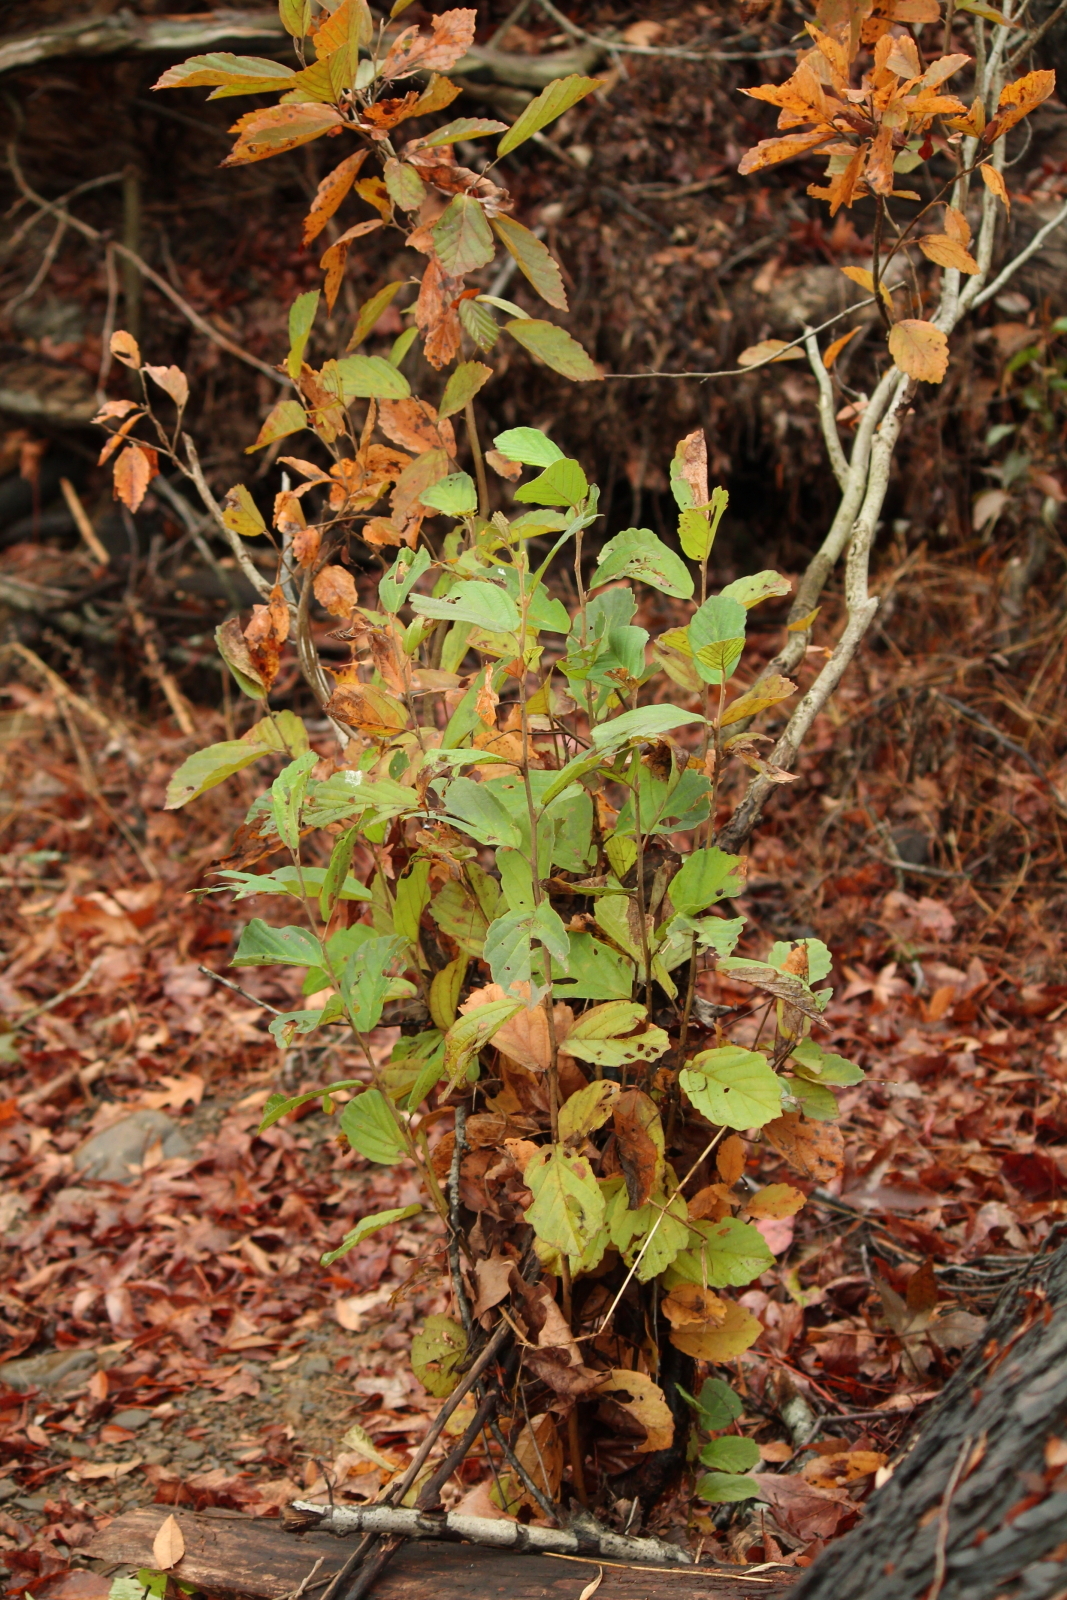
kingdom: Plantae
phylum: Tracheophyta
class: Magnoliopsida
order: Saxifragales
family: Hamamelidaceae
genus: Hamamelis
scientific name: Hamamelis vernalis
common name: Ozark witch-hazel
